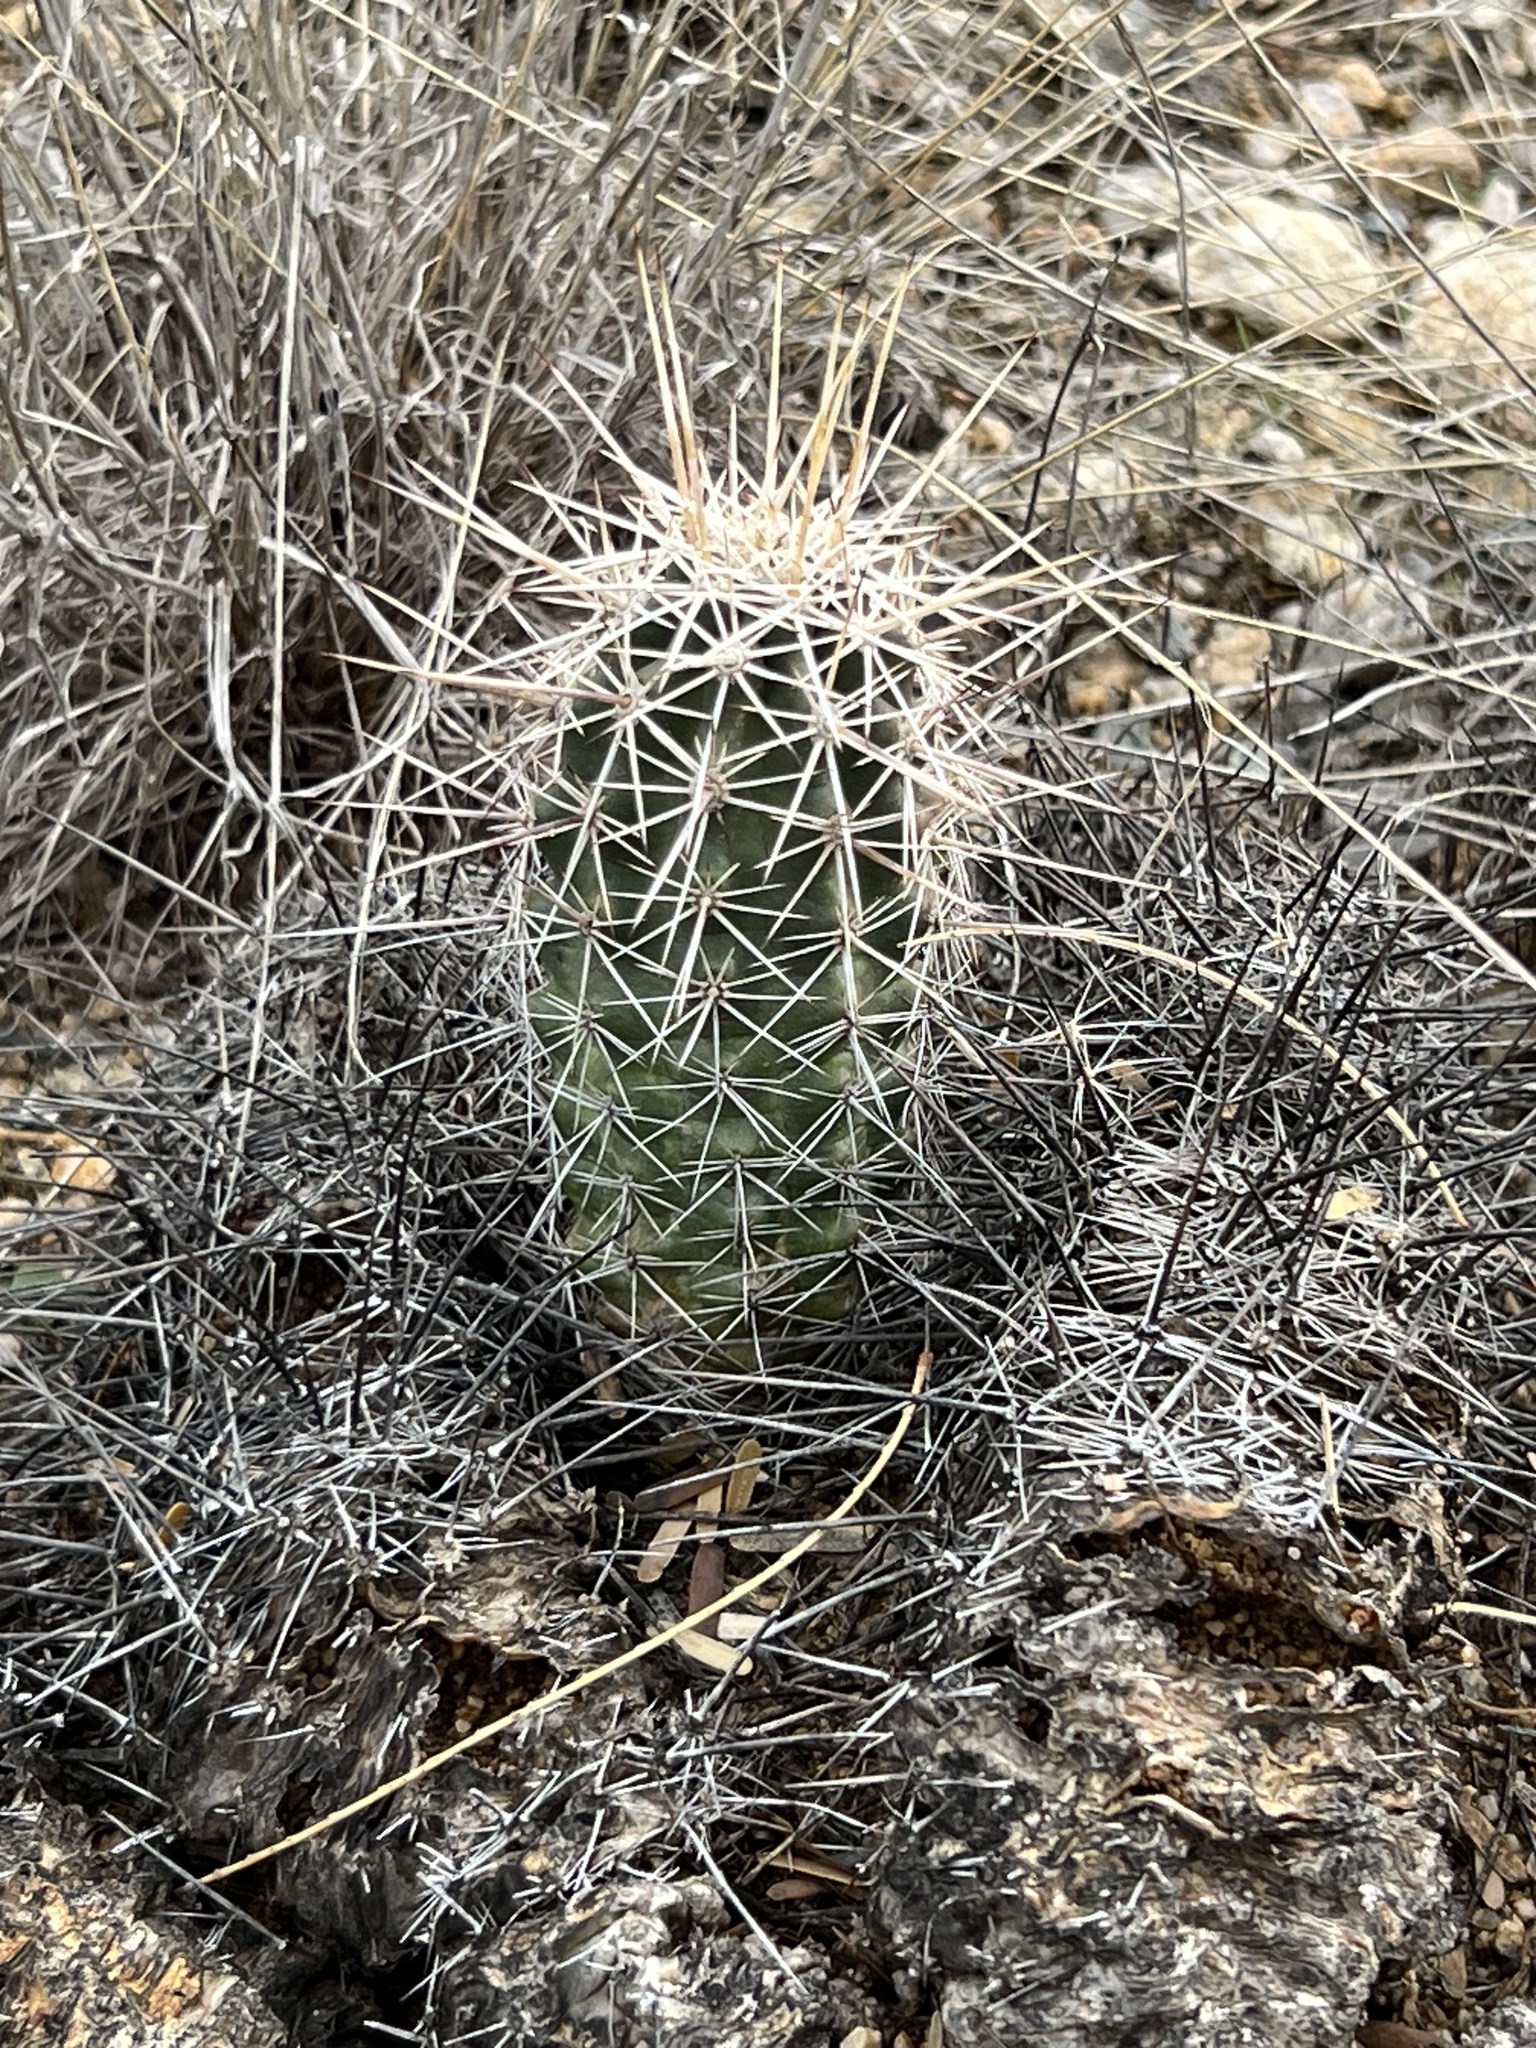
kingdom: Plantae
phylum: Tracheophyta
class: Magnoliopsida
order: Caryophyllales
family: Cactaceae
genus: Carnegiea
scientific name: Carnegiea gigantea
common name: Saguaro
